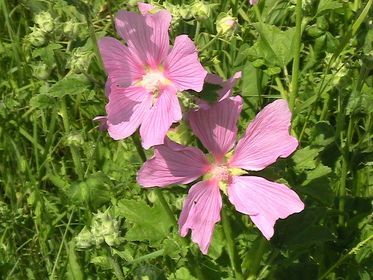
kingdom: Plantae
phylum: Tracheophyta
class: Magnoliopsida
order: Malvales
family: Malvaceae
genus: Malva
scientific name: Malva thuringiaca
